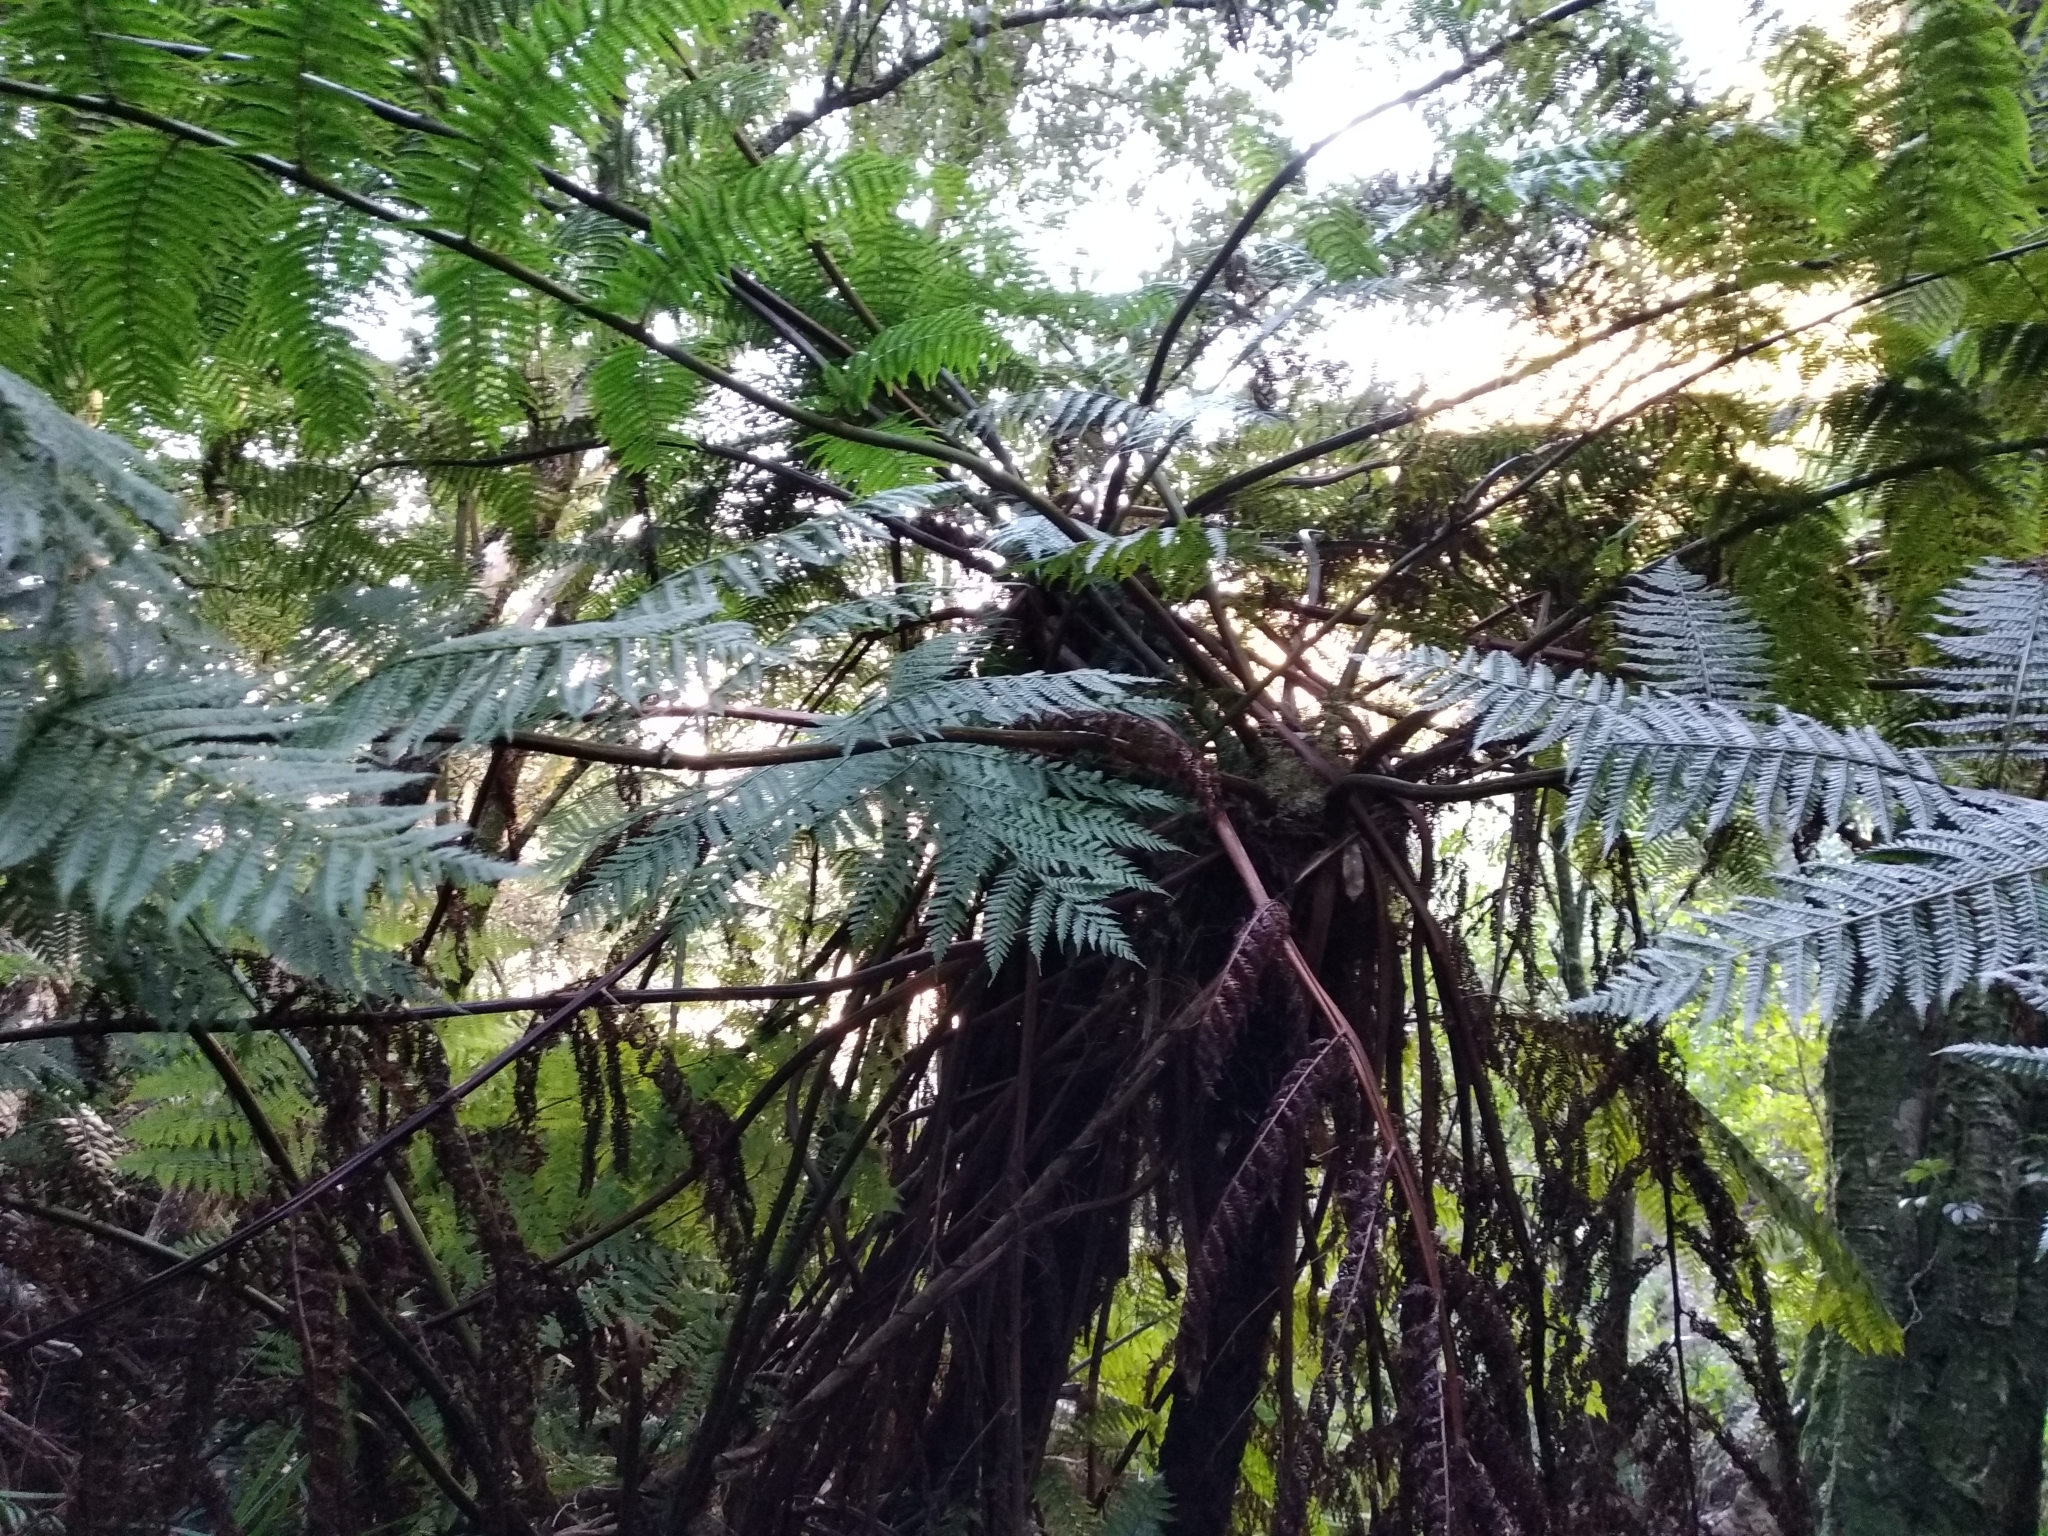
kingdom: Plantae
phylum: Tracheophyta
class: Polypodiopsida
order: Cyatheales
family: Cyatheaceae
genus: Gymnosphaera
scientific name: Gymnosphaera capensis
